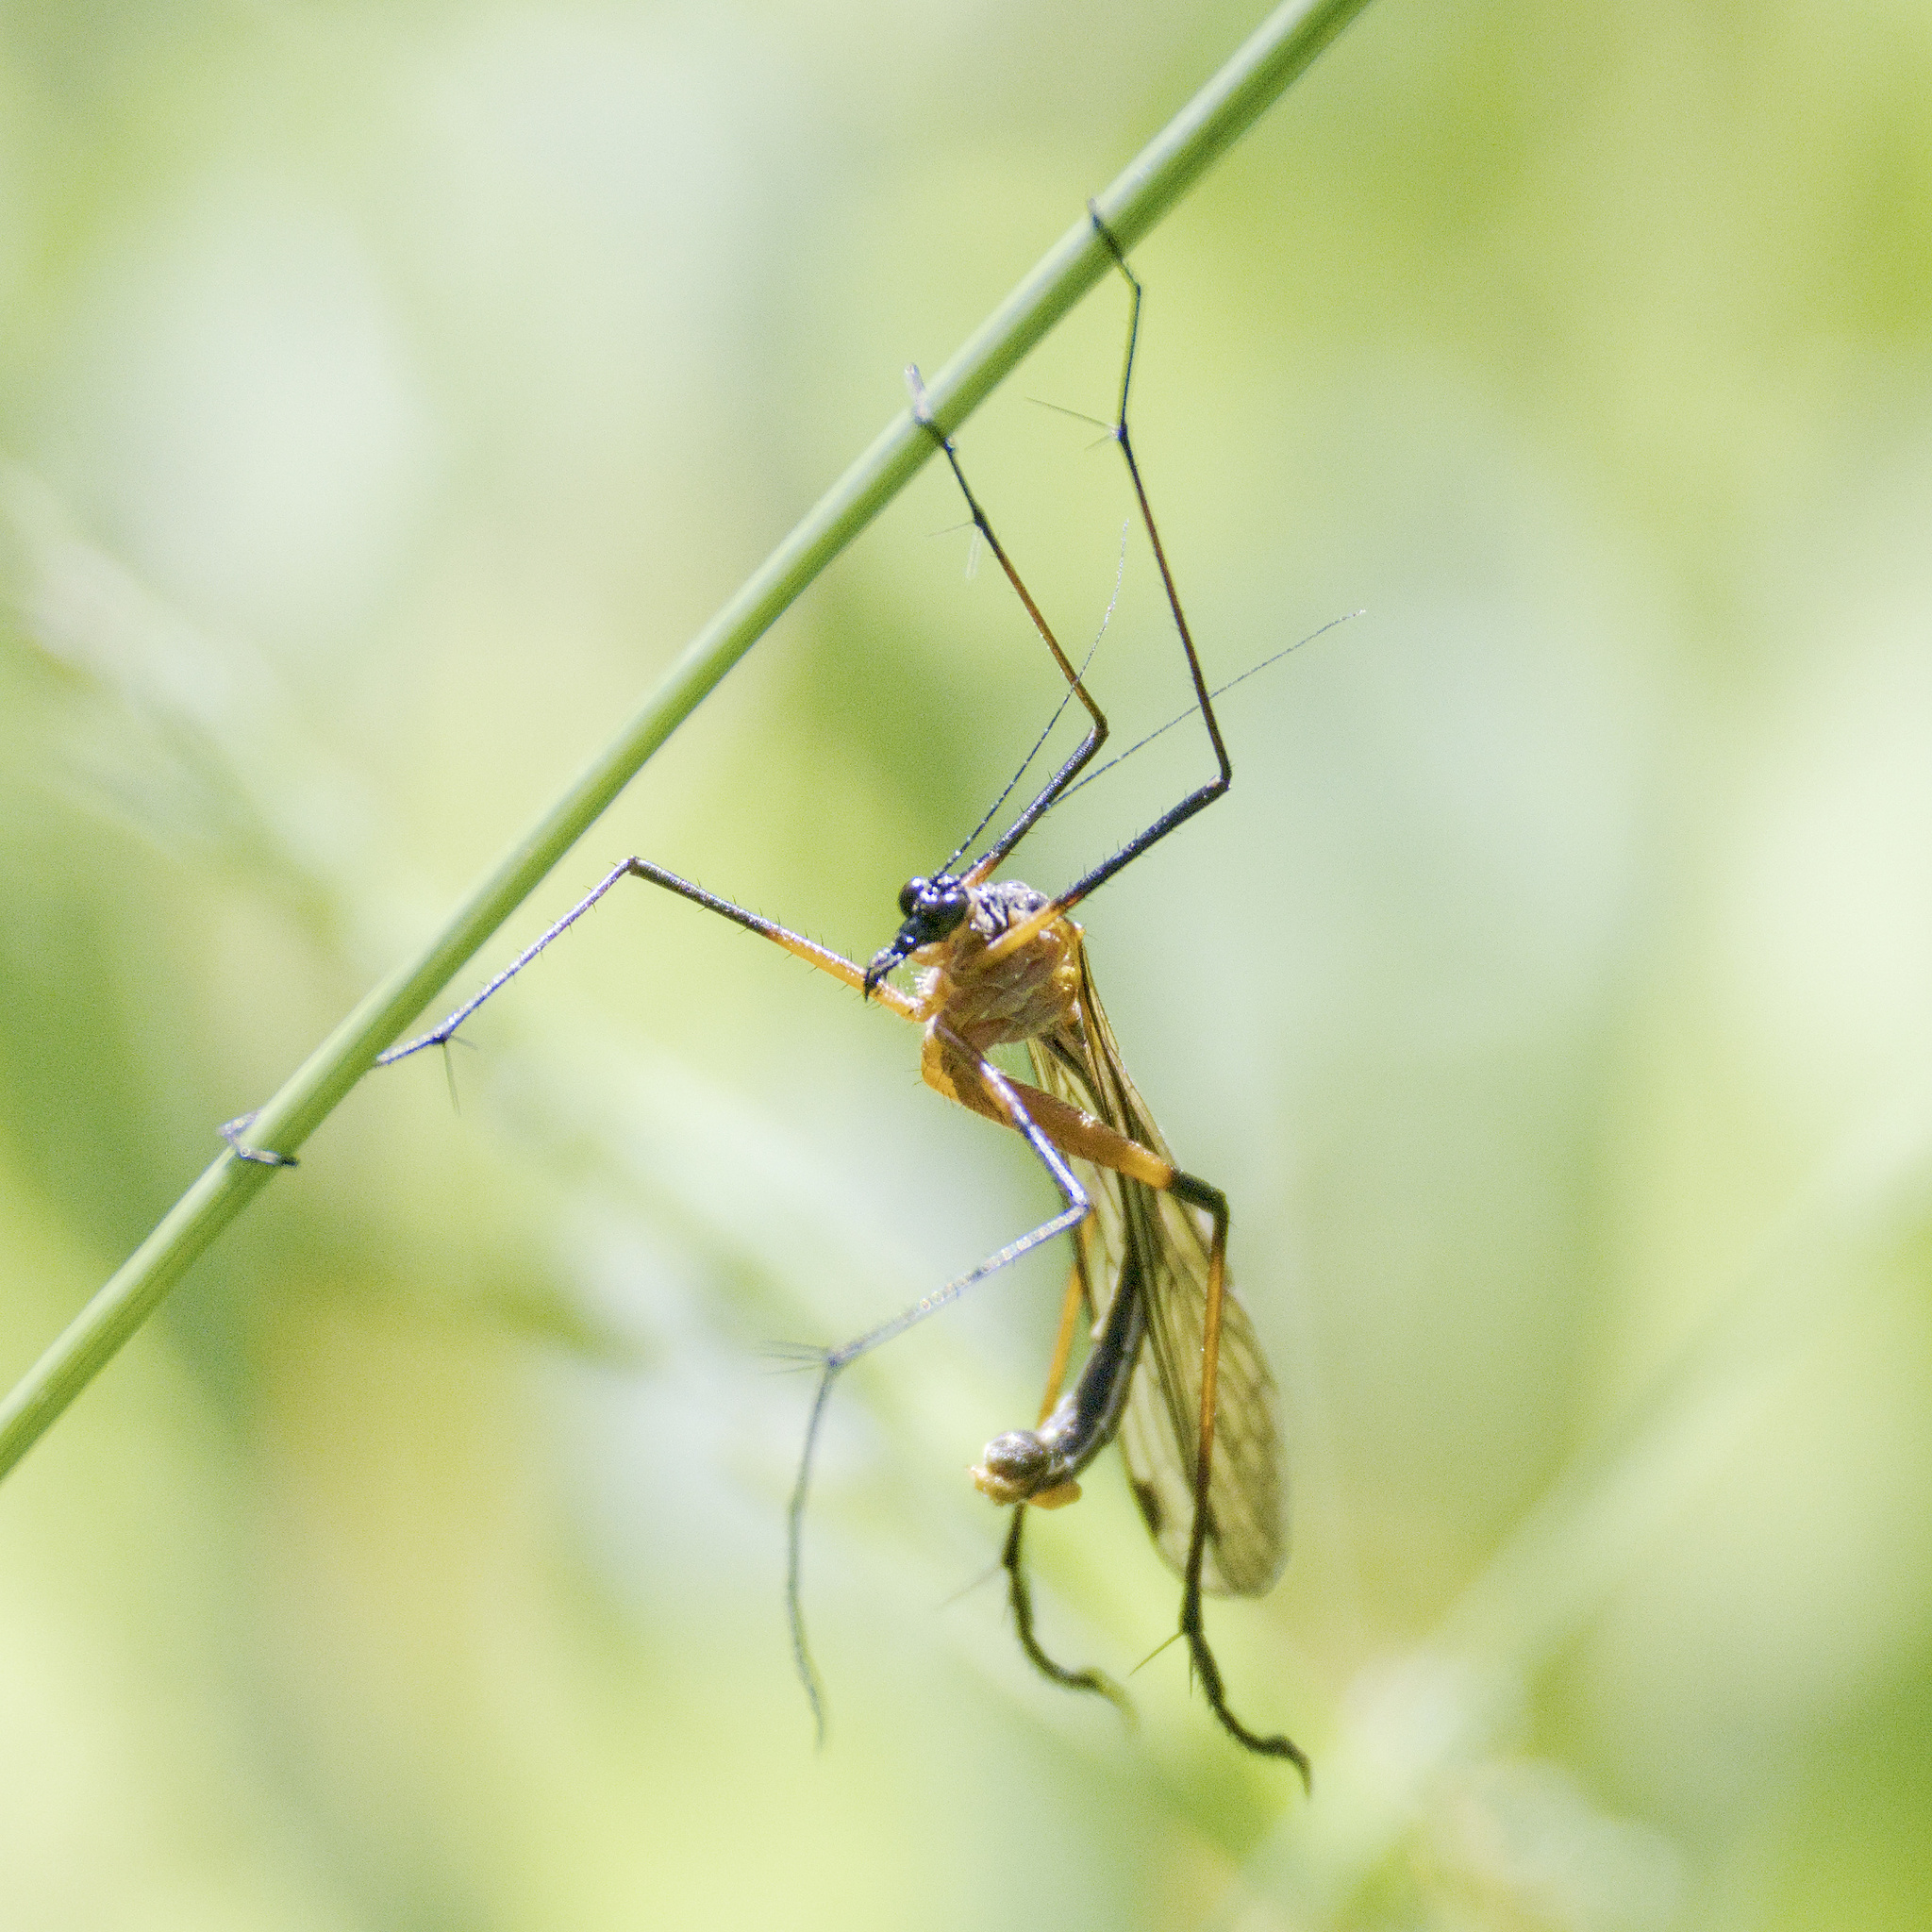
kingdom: Animalia
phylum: Arthropoda
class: Insecta
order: Mecoptera
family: Bittacidae
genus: Harpobittacus
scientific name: Harpobittacus nigriceps
